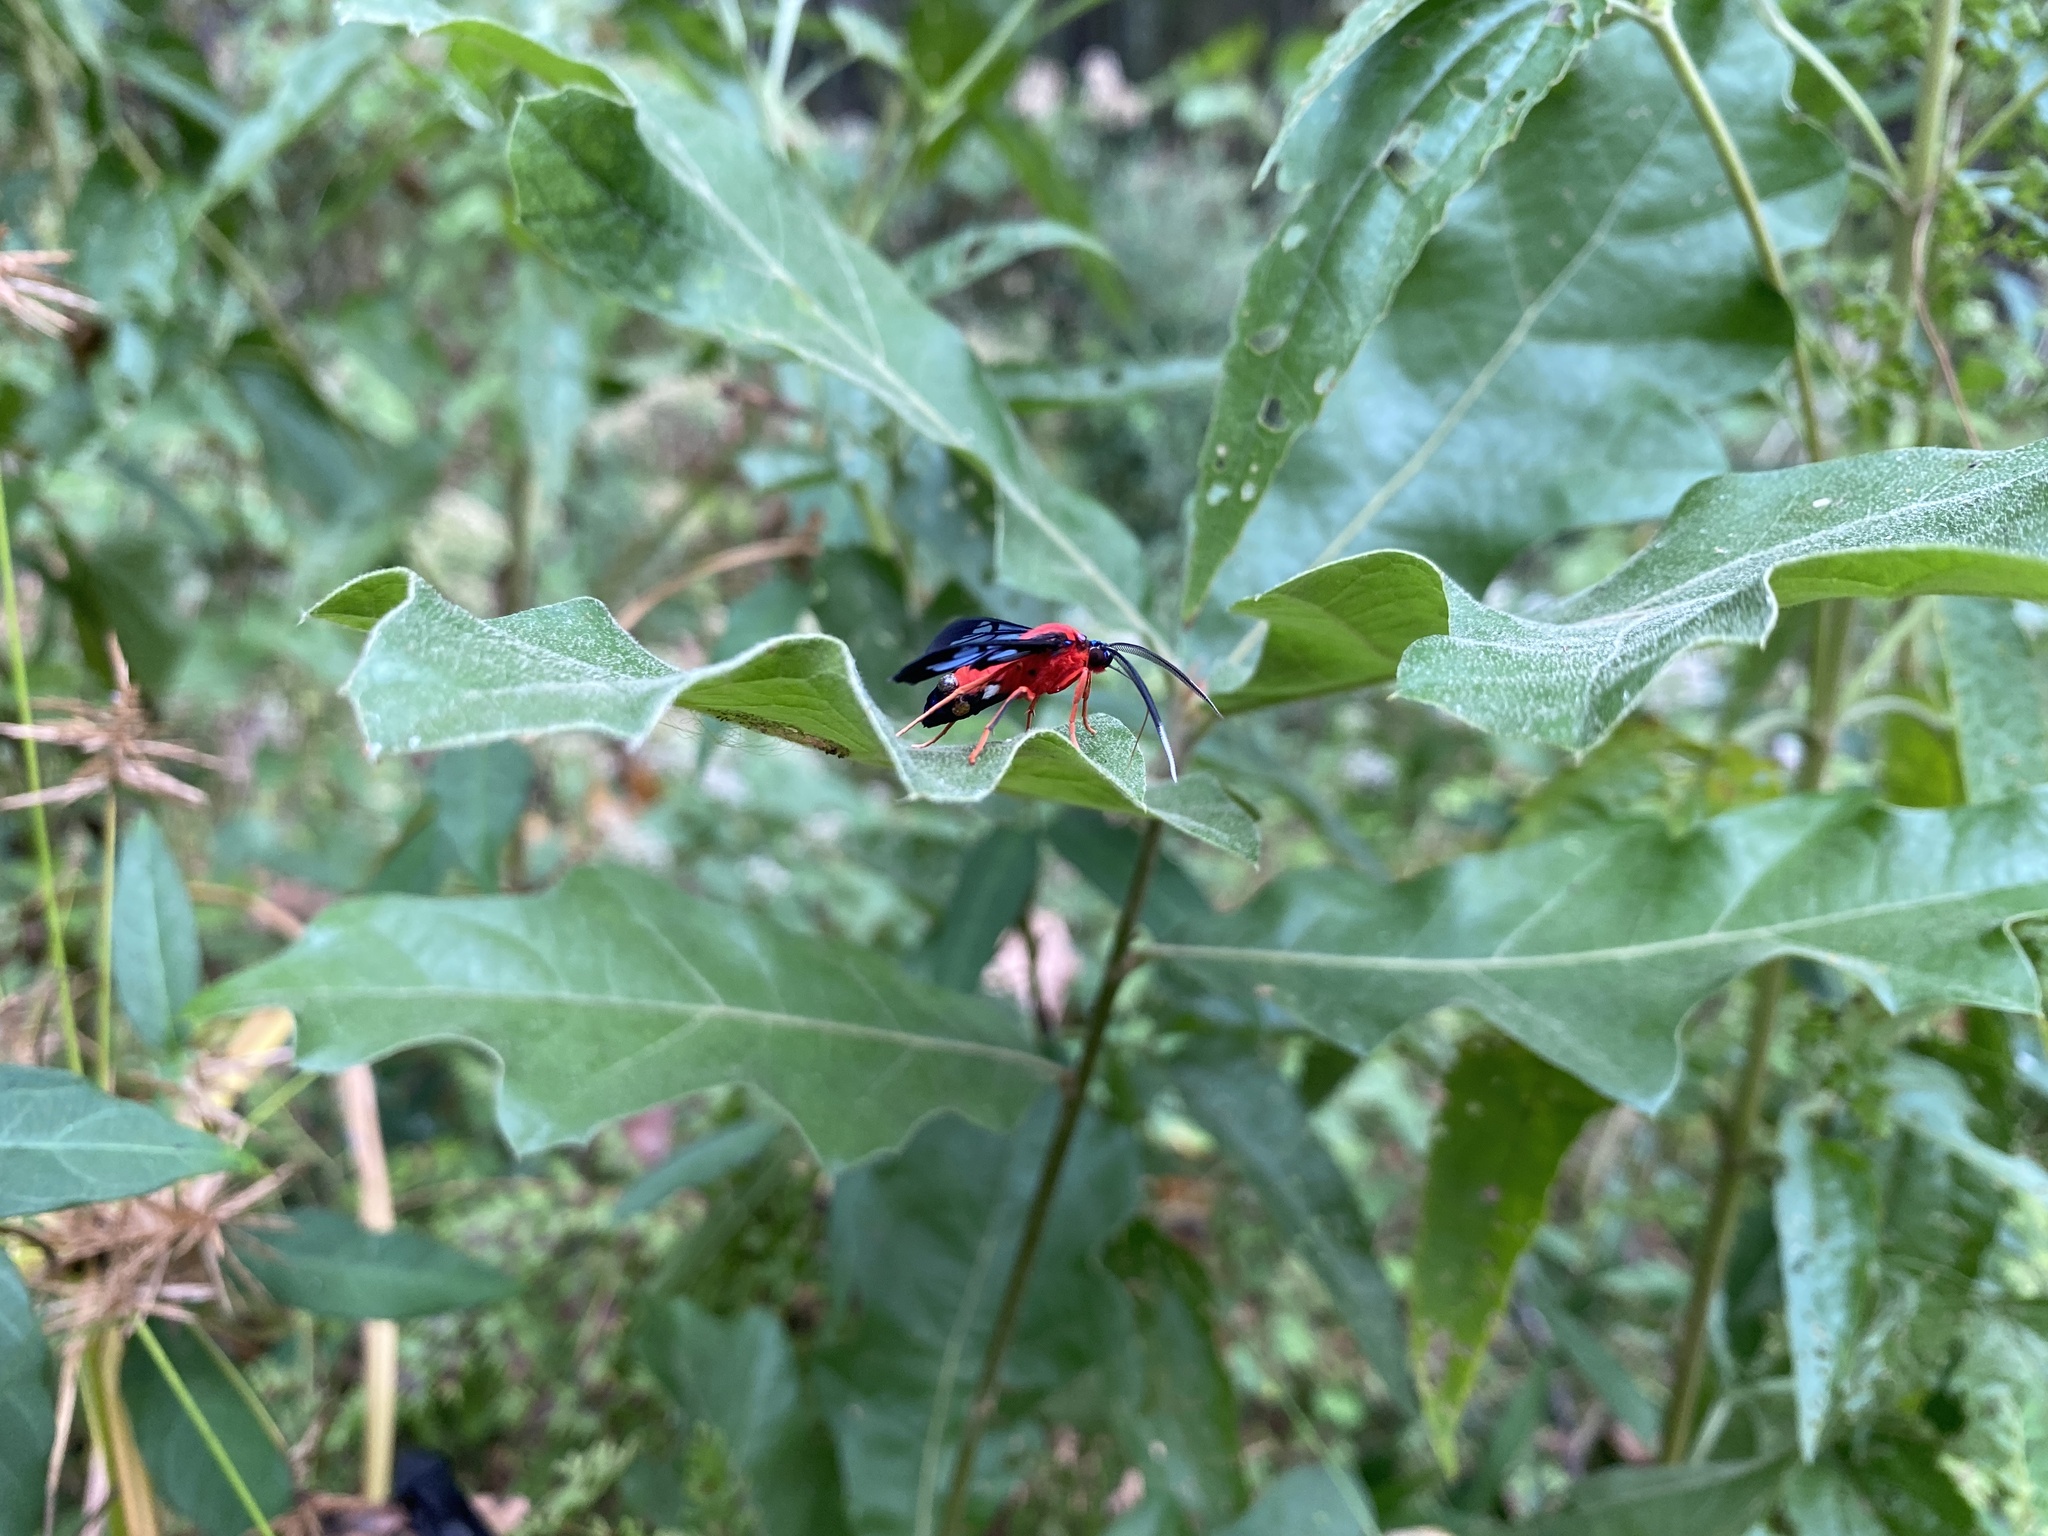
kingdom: Animalia
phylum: Arthropoda
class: Insecta
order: Lepidoptera
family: Erebidae
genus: Cosmosoma
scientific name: Cosmosoma myrodora
